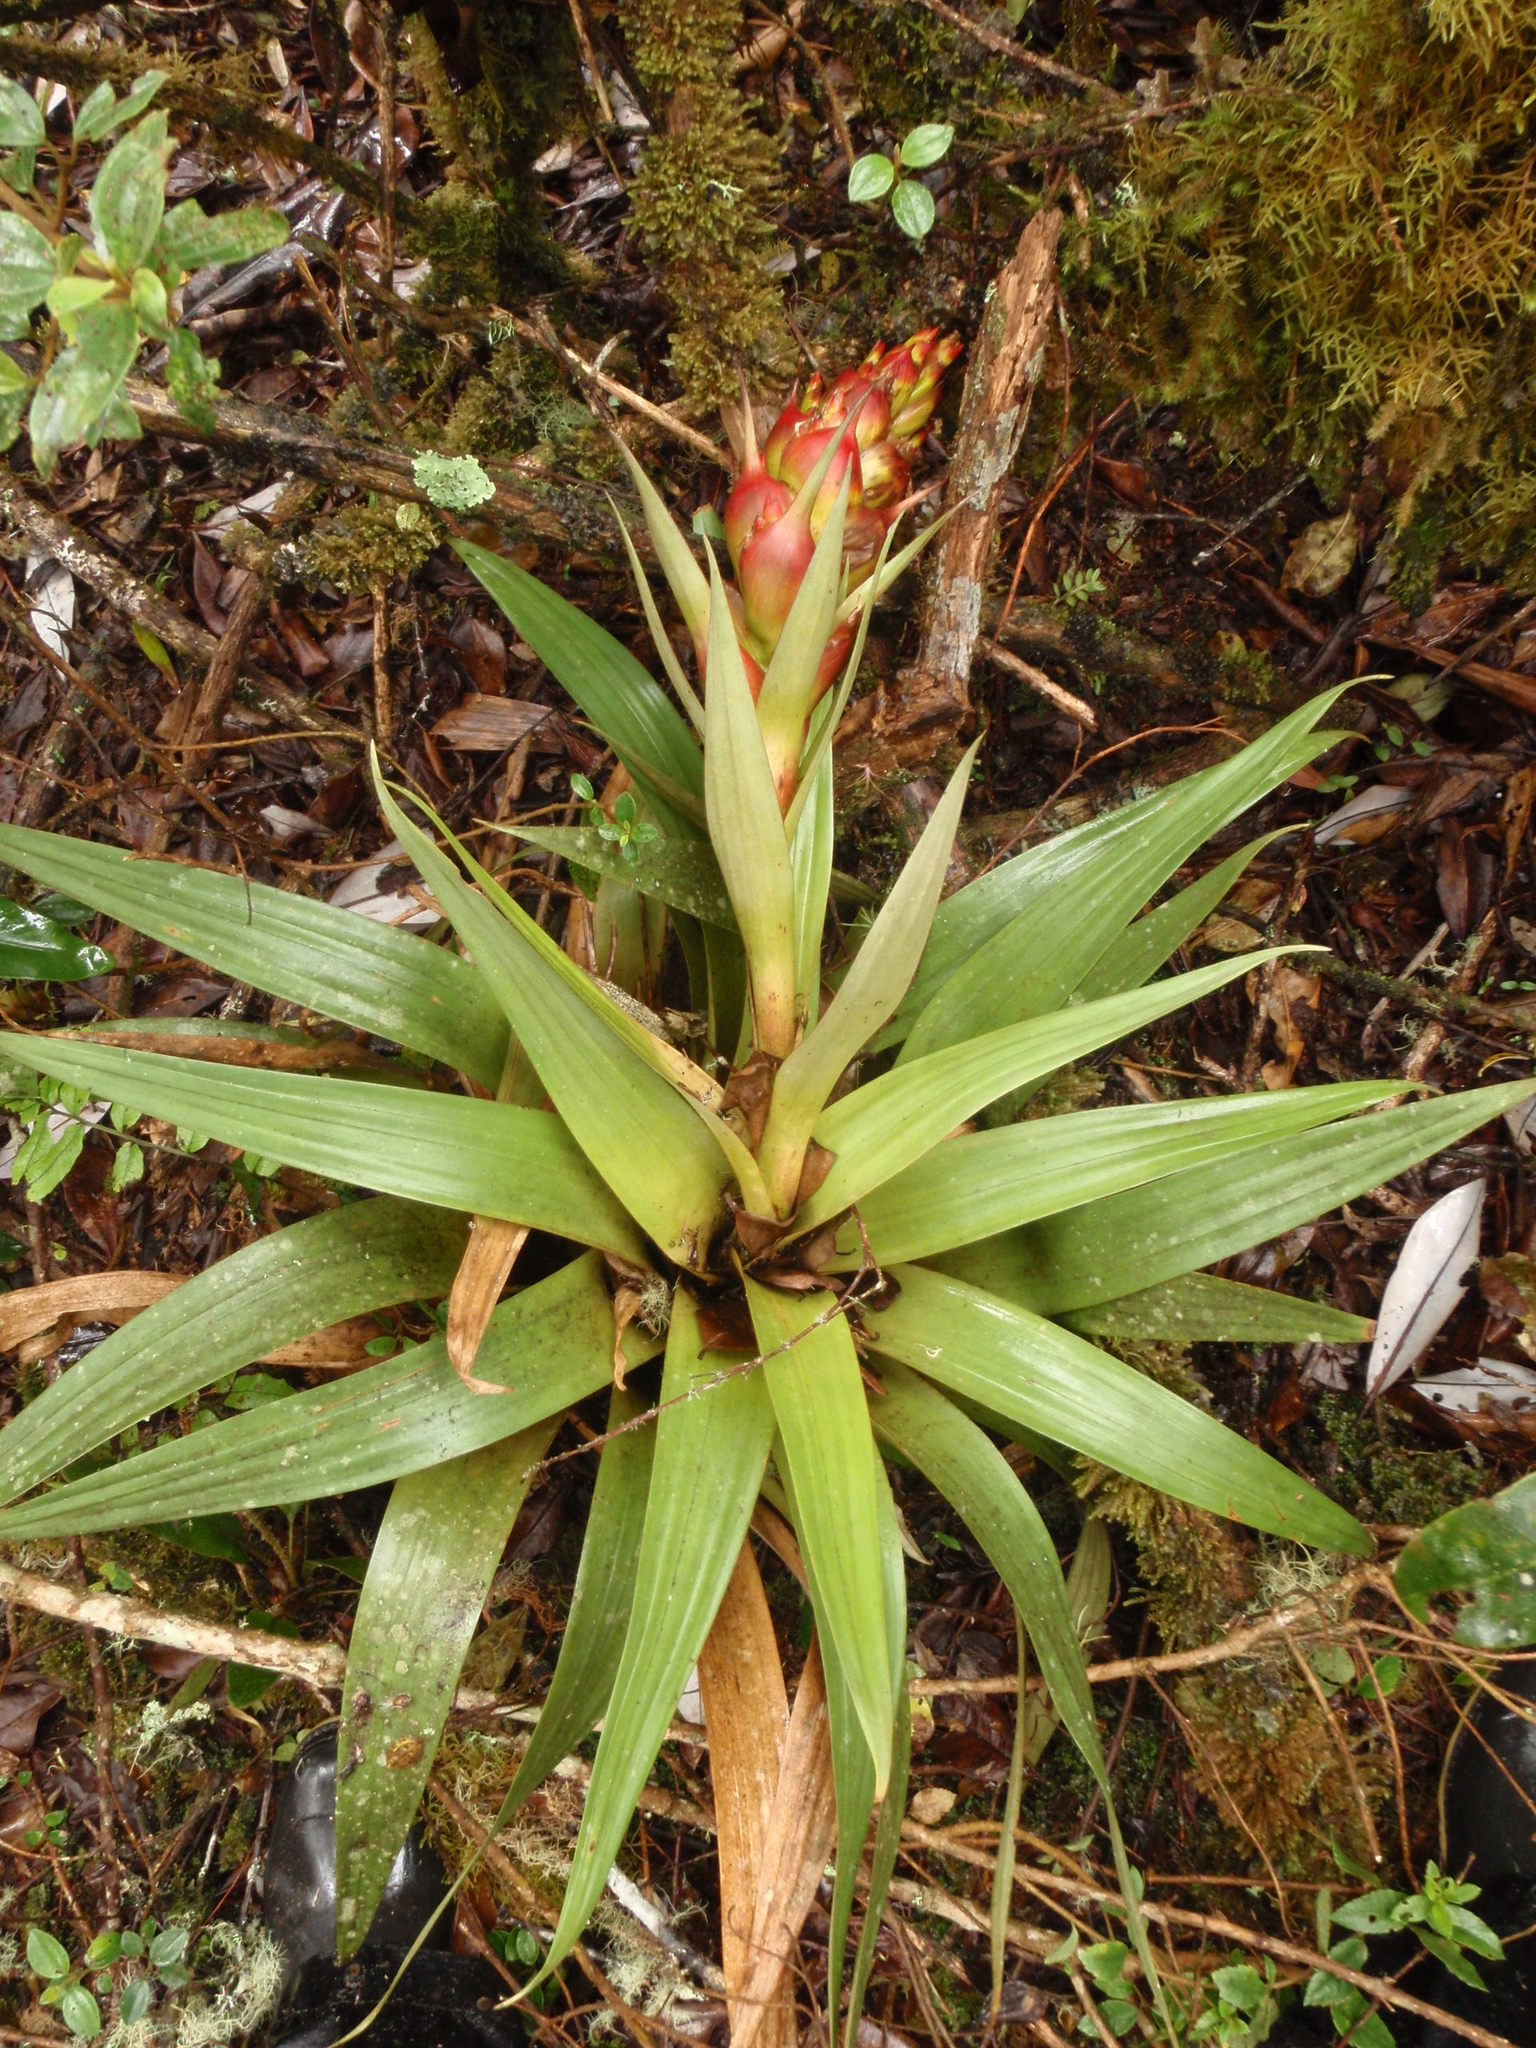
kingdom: Plantae
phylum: Tracheophyta
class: Liliopsida
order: Poales
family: Bromeliaceae
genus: Tillandsia
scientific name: Tillandsia turneri
